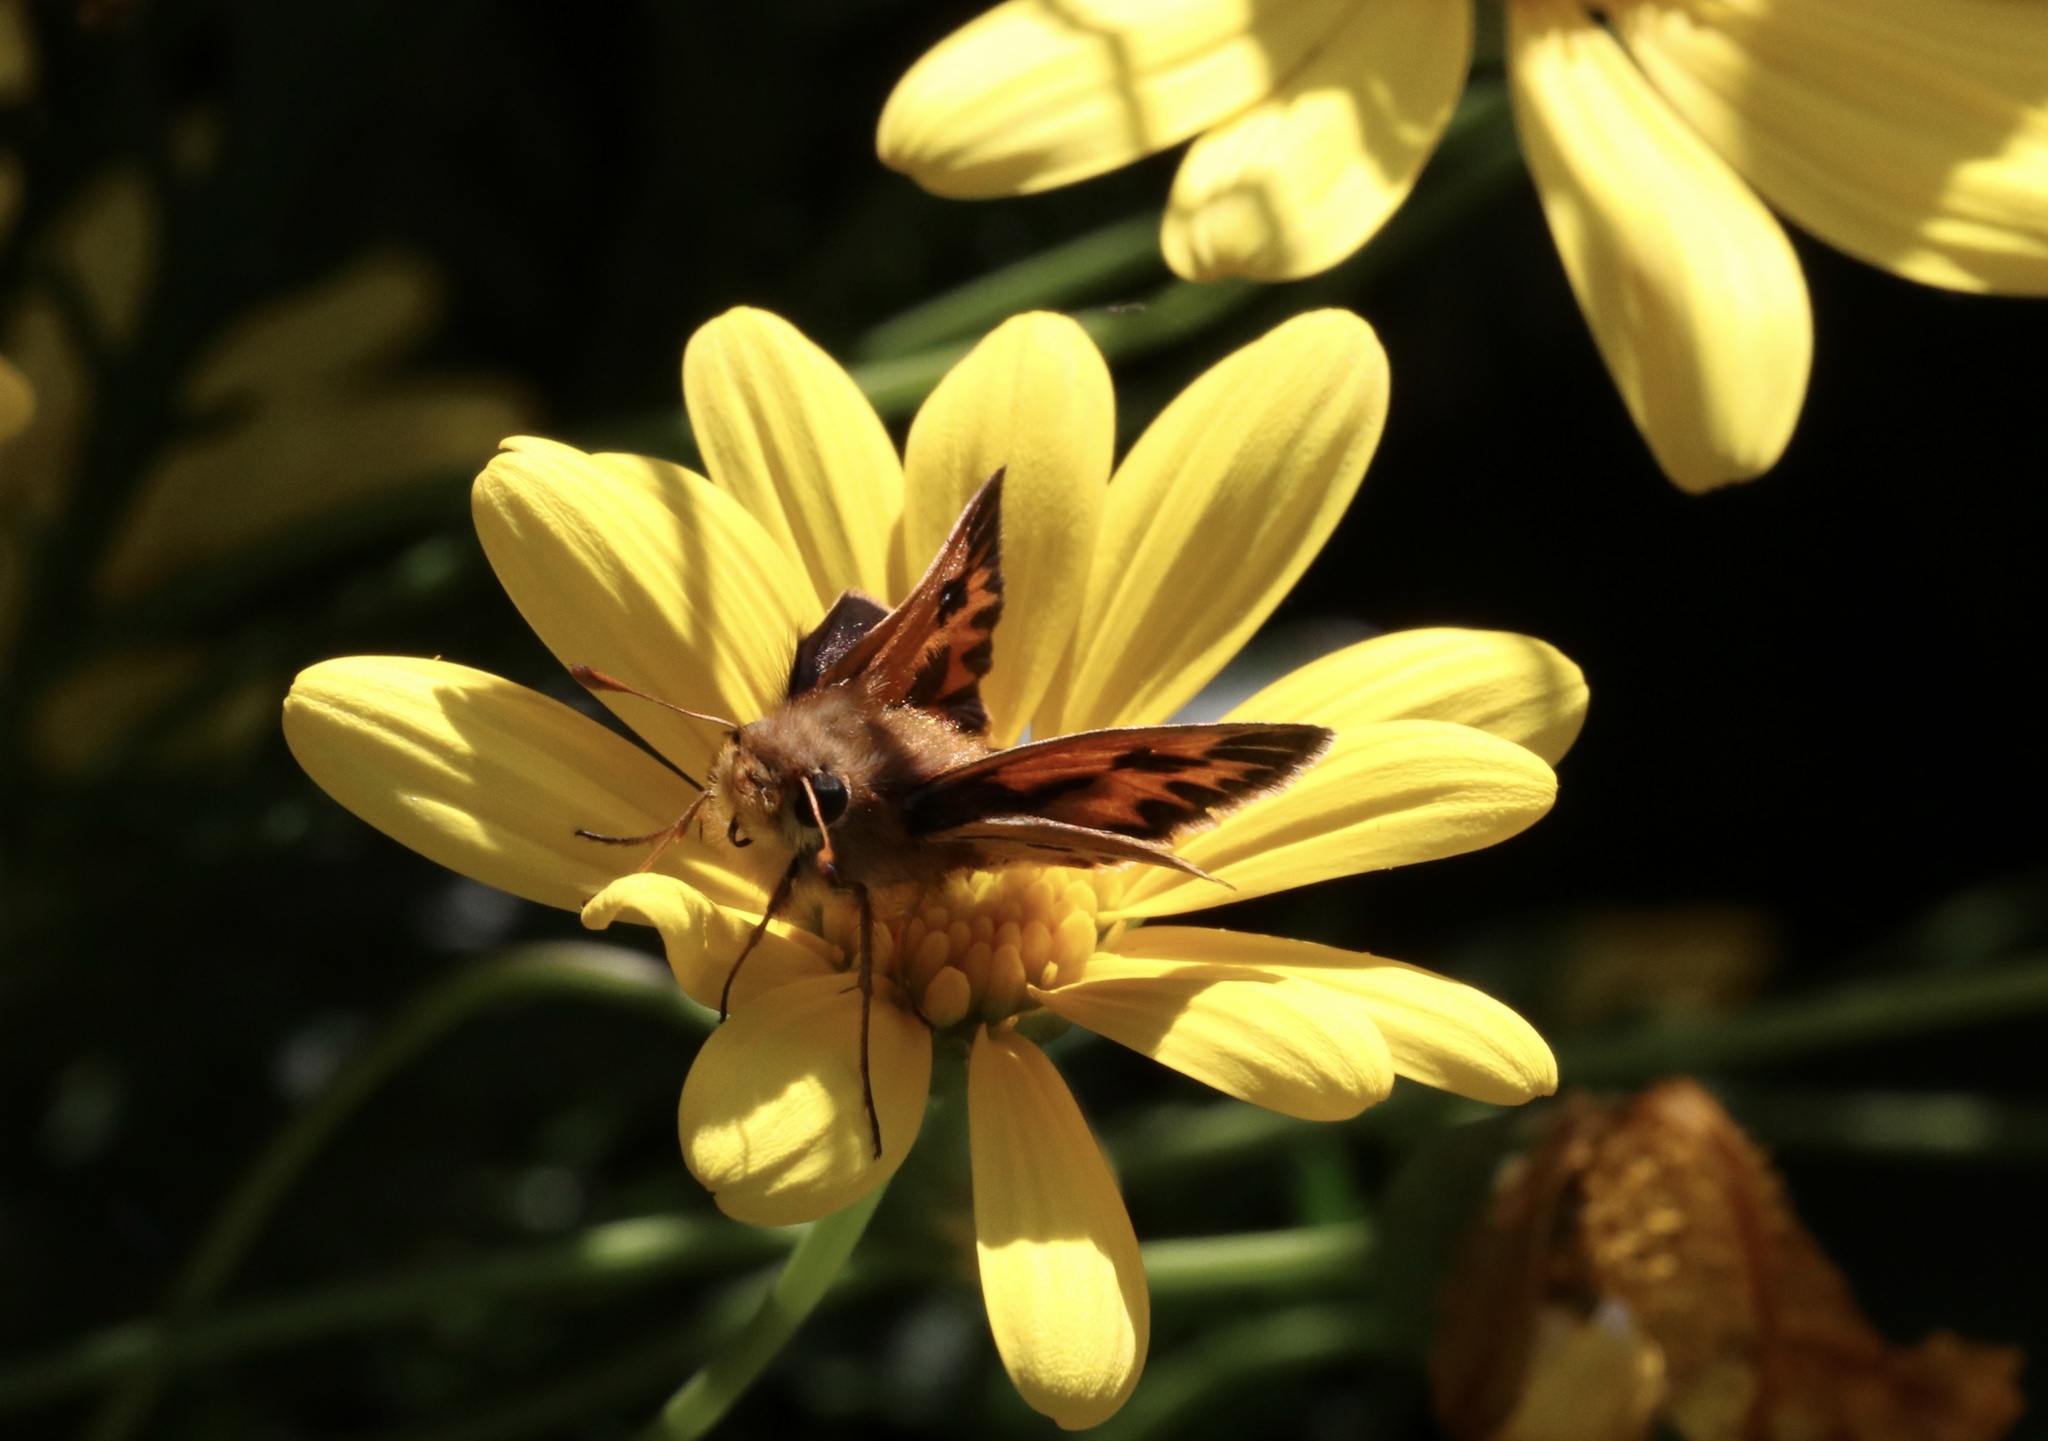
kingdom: Animalia
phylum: Arthropoda
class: Insecta
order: Lepidoptera
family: Hesperiidae
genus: Hylephila
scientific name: Hylephila fasciolata
